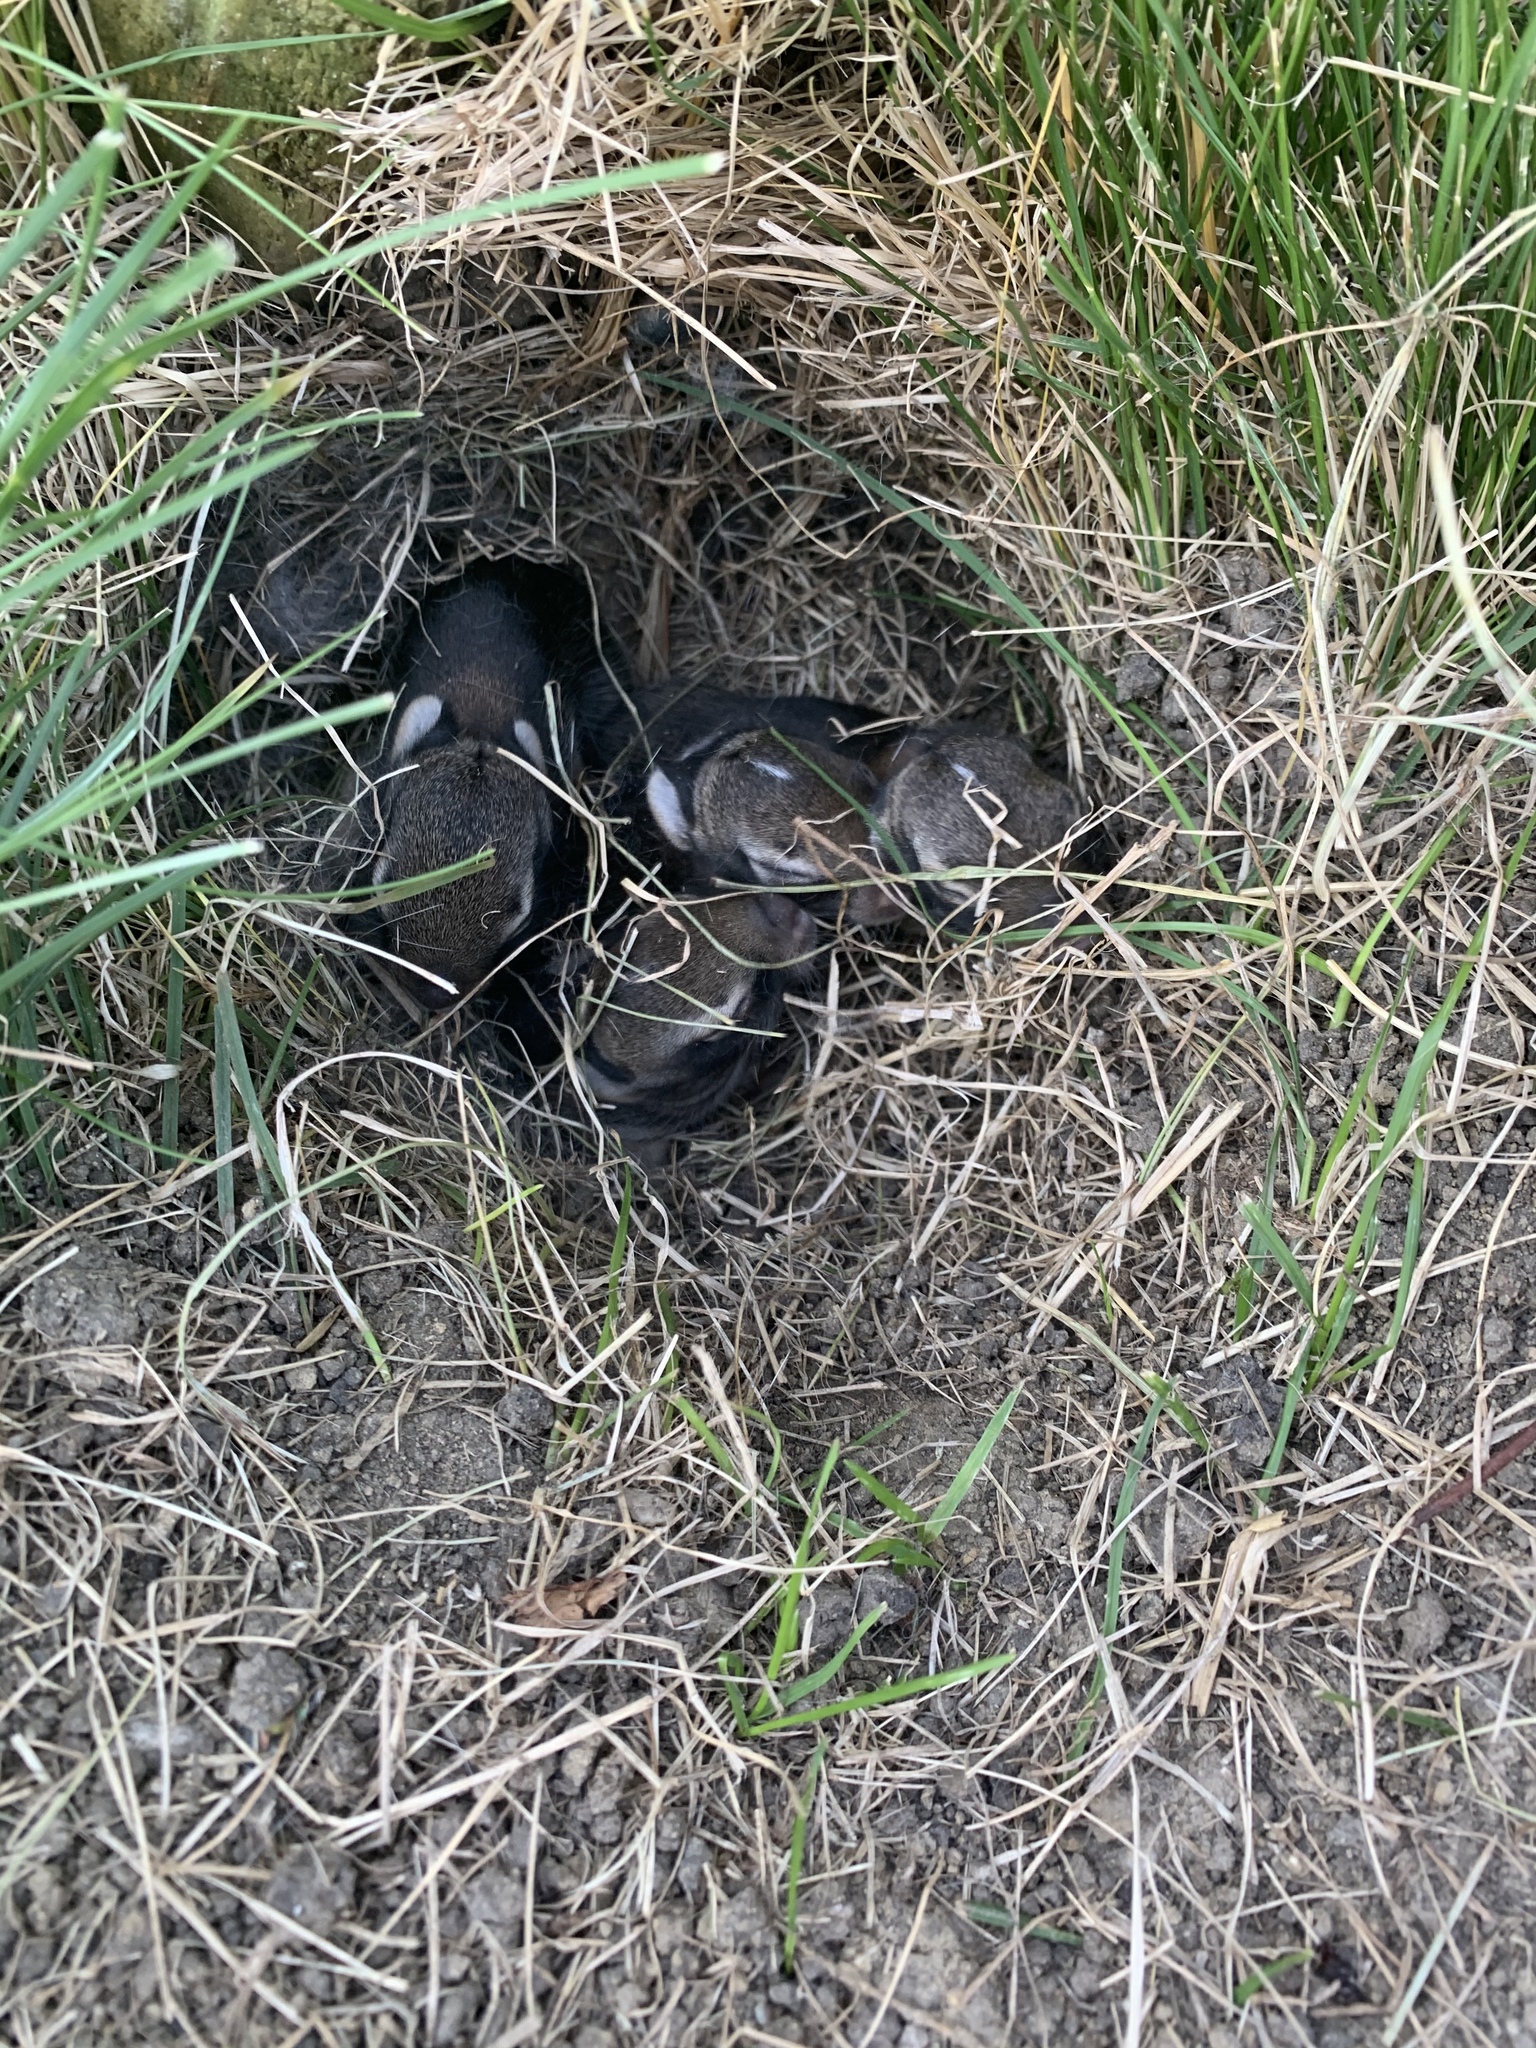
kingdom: Animalia
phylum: Chordata
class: Mammalia
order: Lagomorpha
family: Leporidae
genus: Sylvilagus
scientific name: Sylvilagus floridanus
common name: Eastern cottontail
